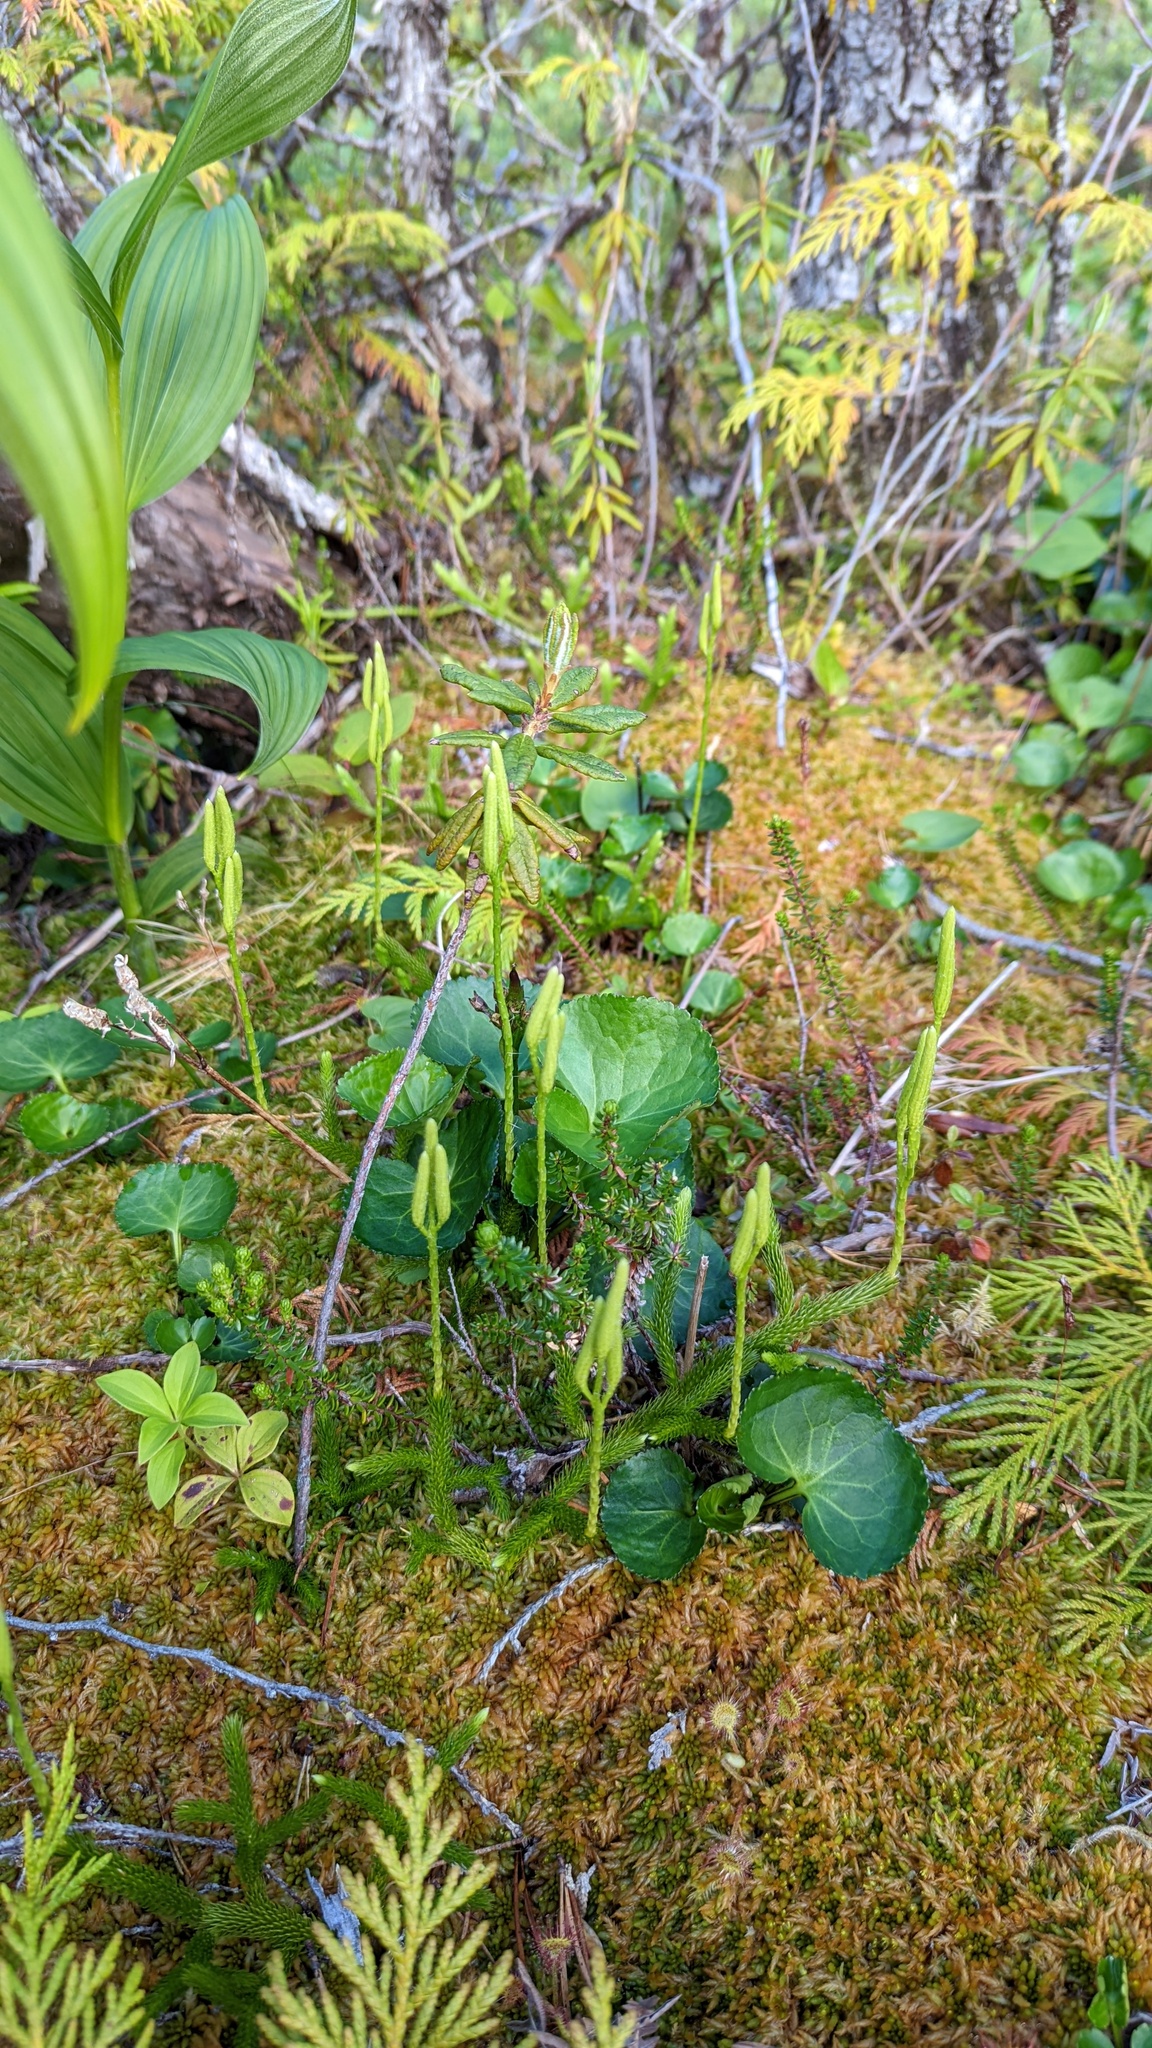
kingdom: Plantae
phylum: Tracheophyta
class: Lycopodiopsida
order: Lycopodiales
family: Lycopodiaceae
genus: Lycopodium
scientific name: Lycopodium clavatum
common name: Stag's-horn clubmoss
